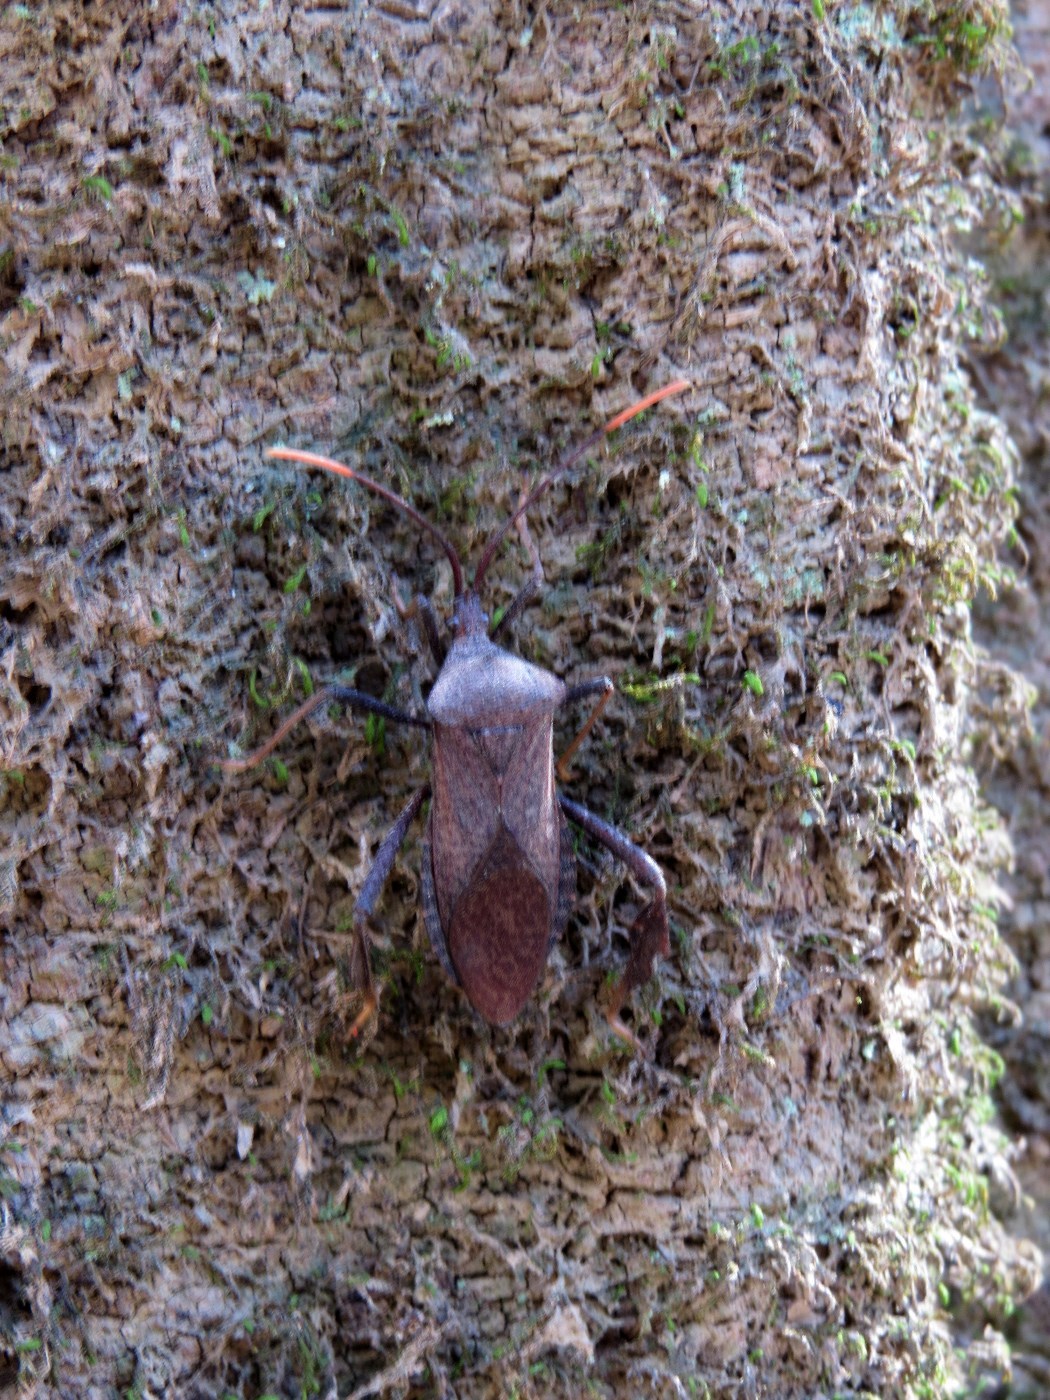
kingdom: Animalia
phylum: Arthropoda
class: Insecta
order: Hemiptera
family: Coreidae
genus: Acanthocephala
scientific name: Acanthocephala terminalis
